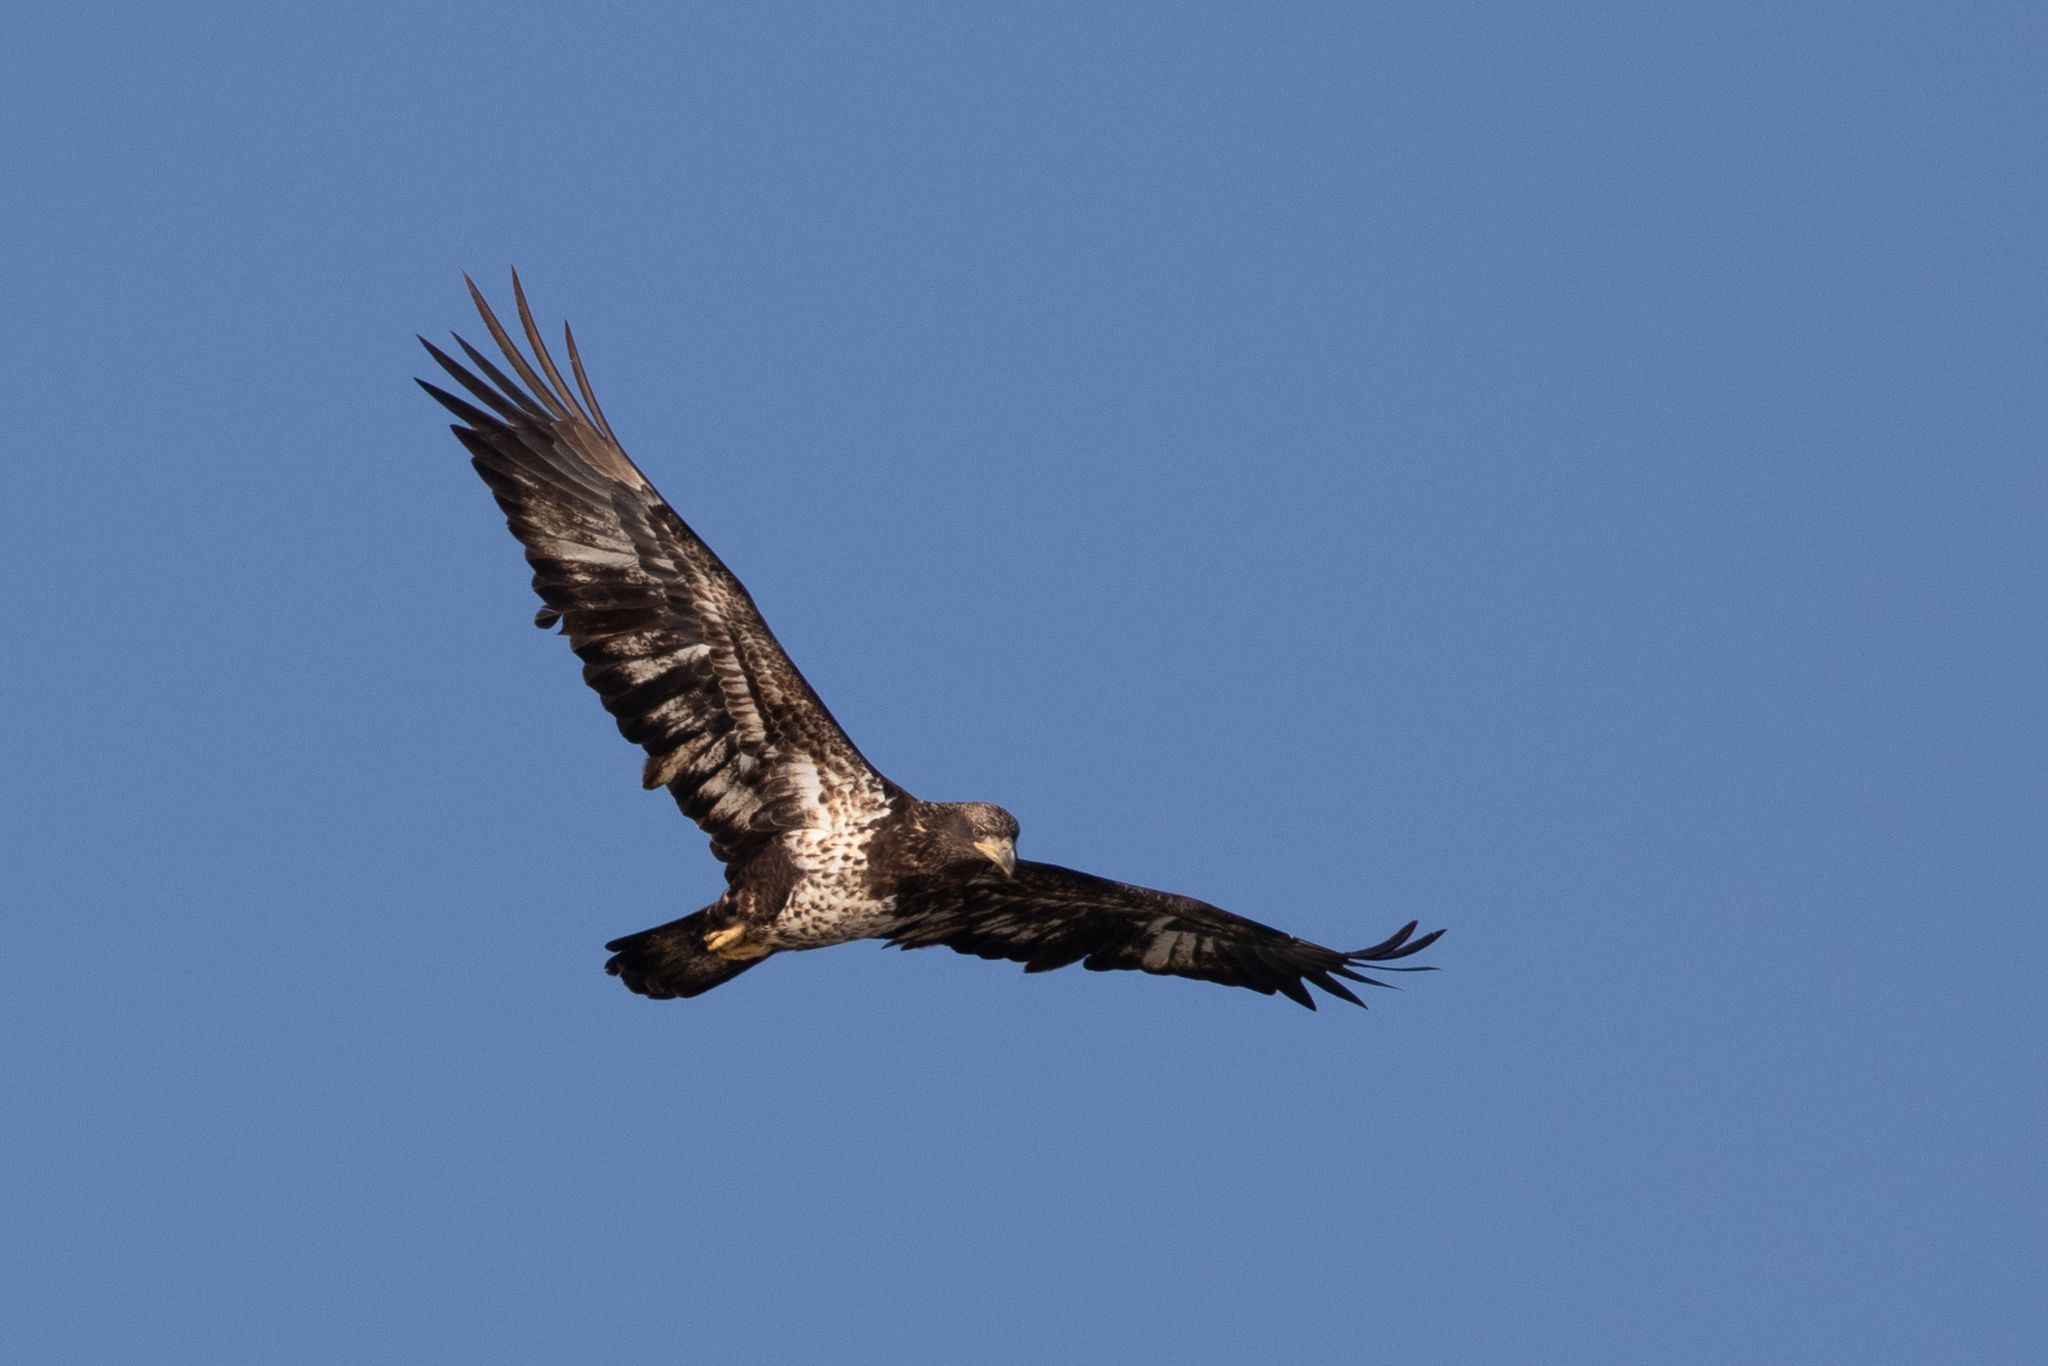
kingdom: Animalia
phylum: Chordata
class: Aves
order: Accipitriformes
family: Accipitridae
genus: Haliaeetus
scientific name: Haliaeetus leucocephalus
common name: Bald eagle
